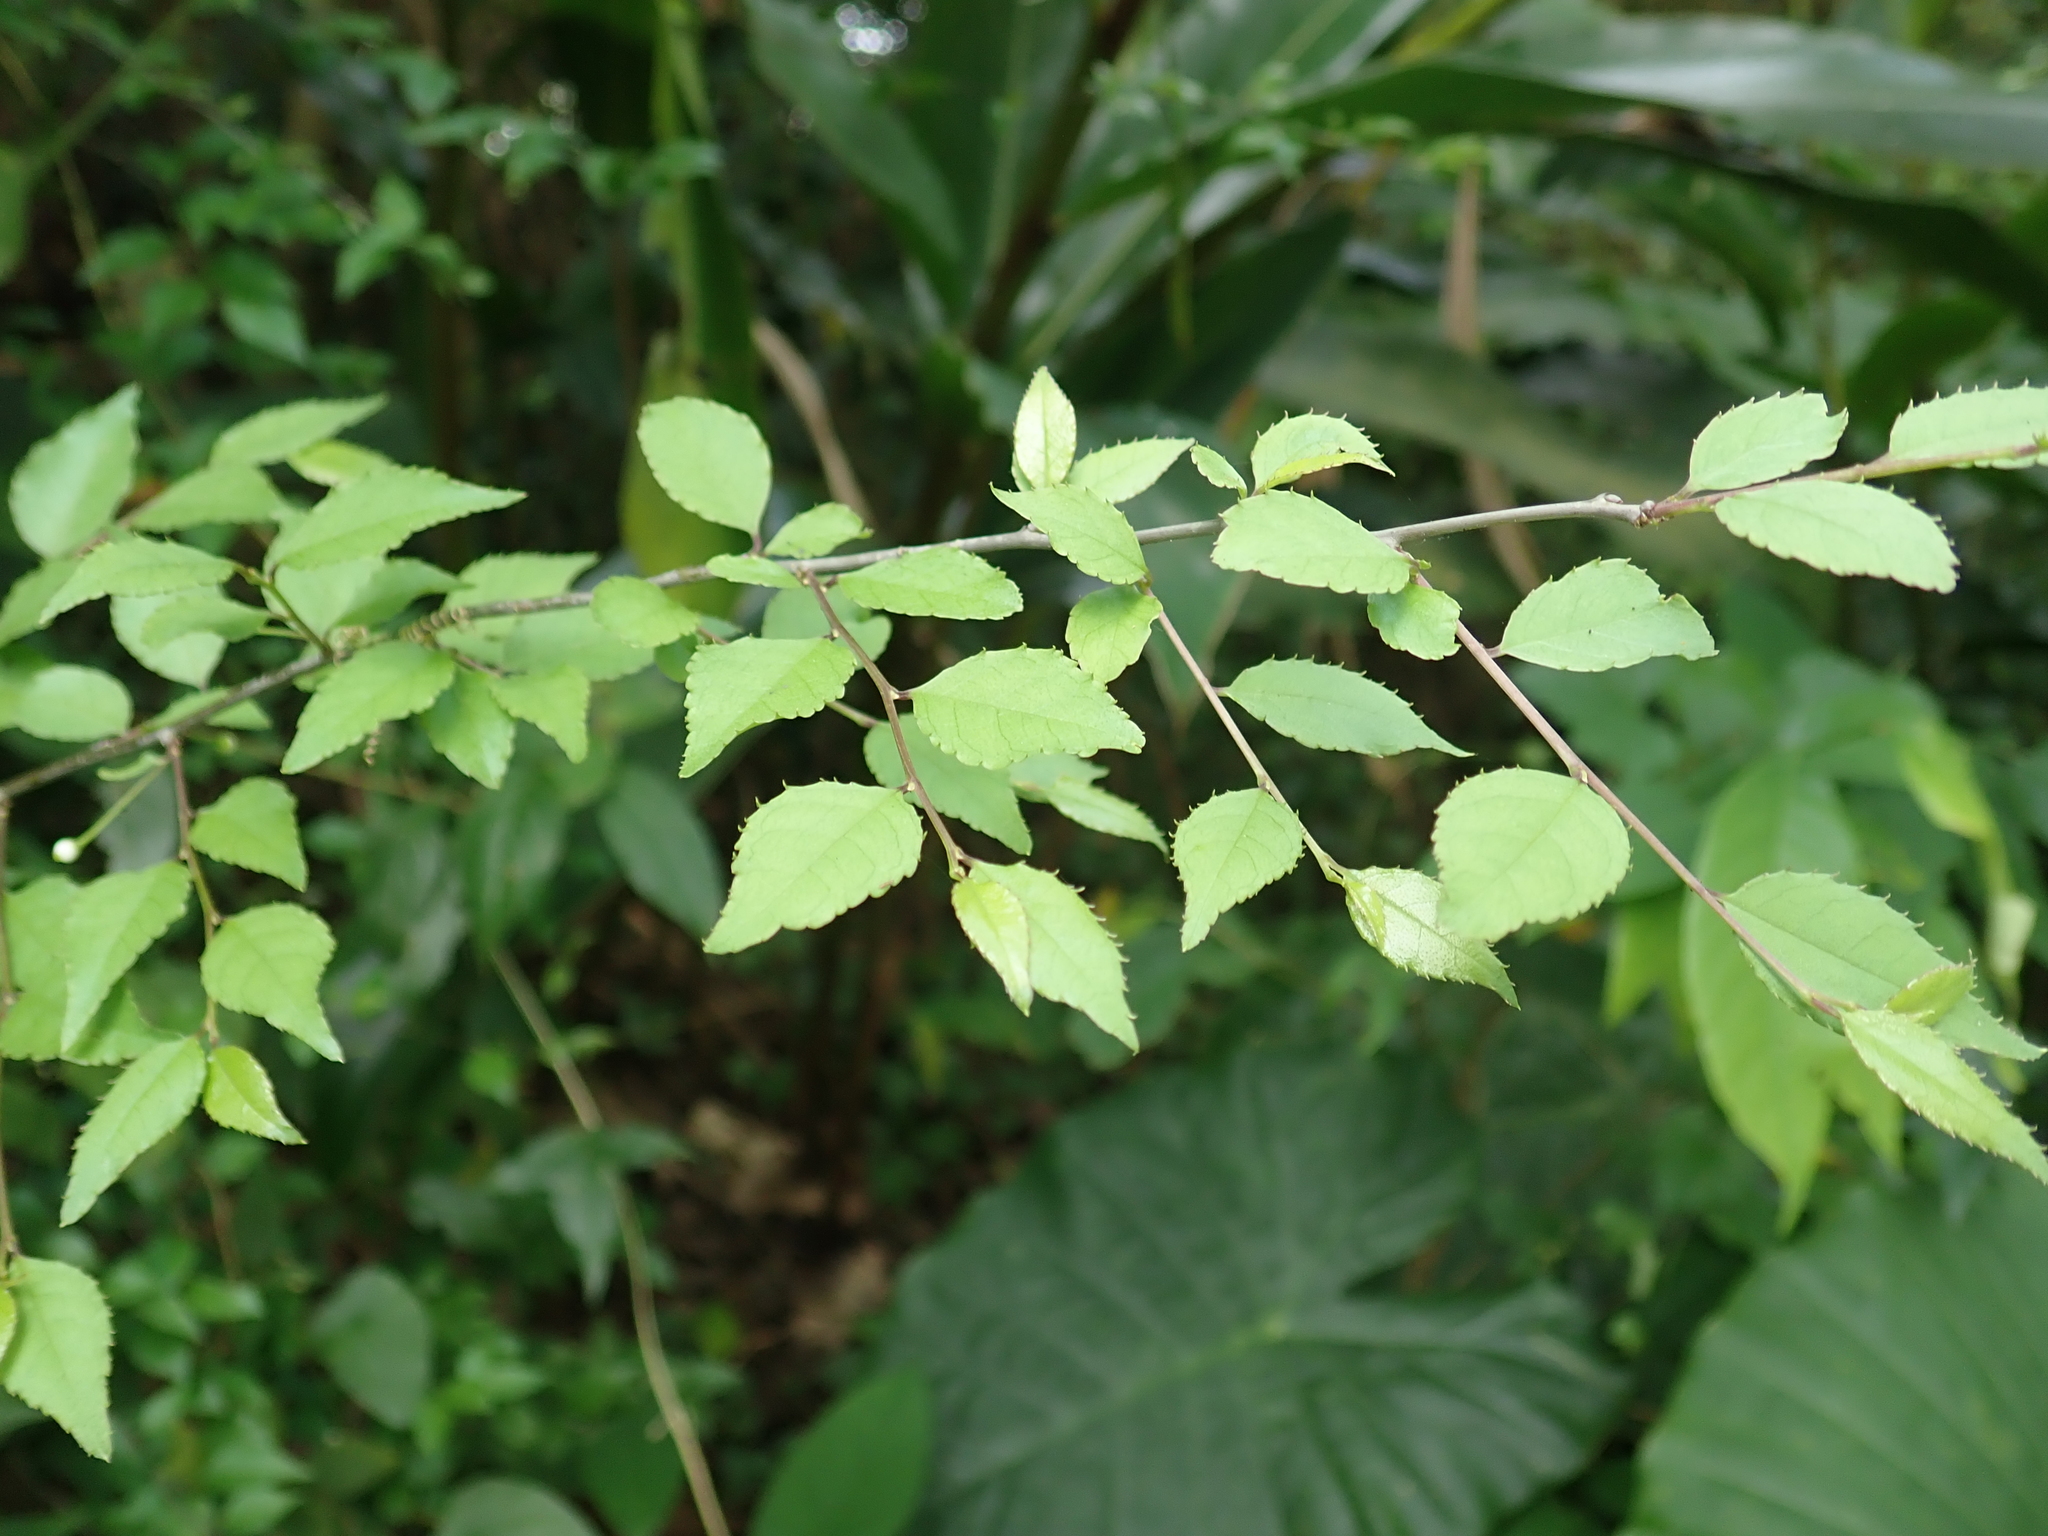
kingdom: Plantae
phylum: Tracheophyta
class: Magnoliopsida
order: Aquifoliales
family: Aquifoliaceae
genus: Ilex
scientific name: Ilex asprella
